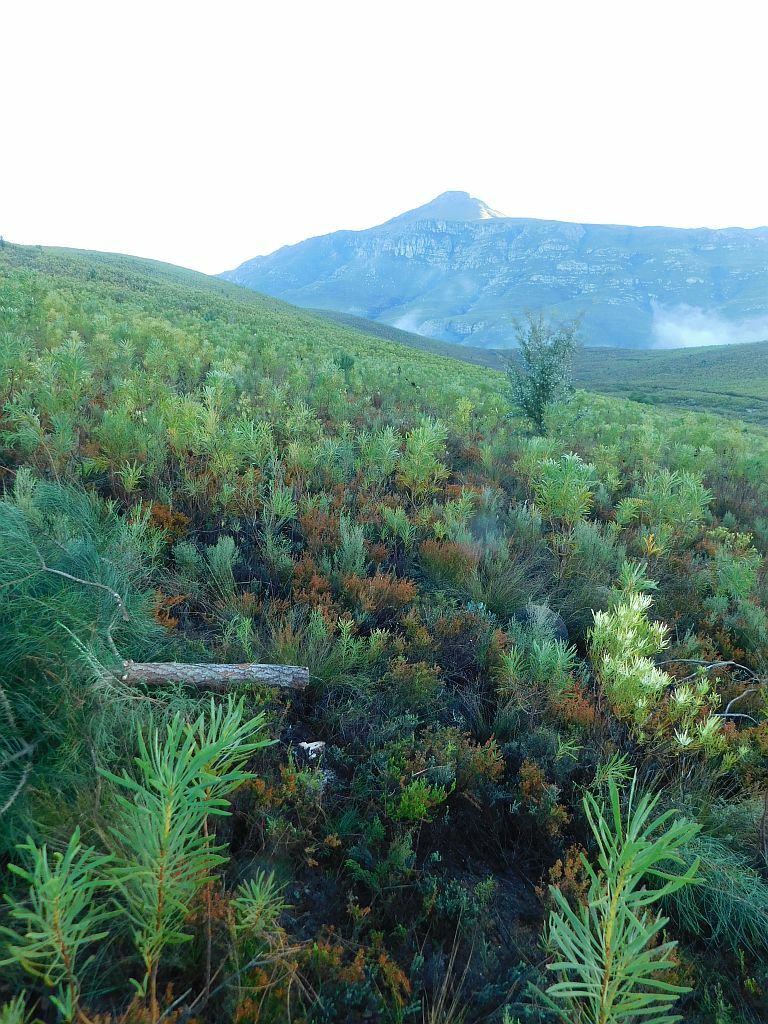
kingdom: Plantae
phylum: Tracheophyta
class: Pinopsida
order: Pinales
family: Pinaceae
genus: Pinus
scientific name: Pinus pinaster
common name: Maritime pine
